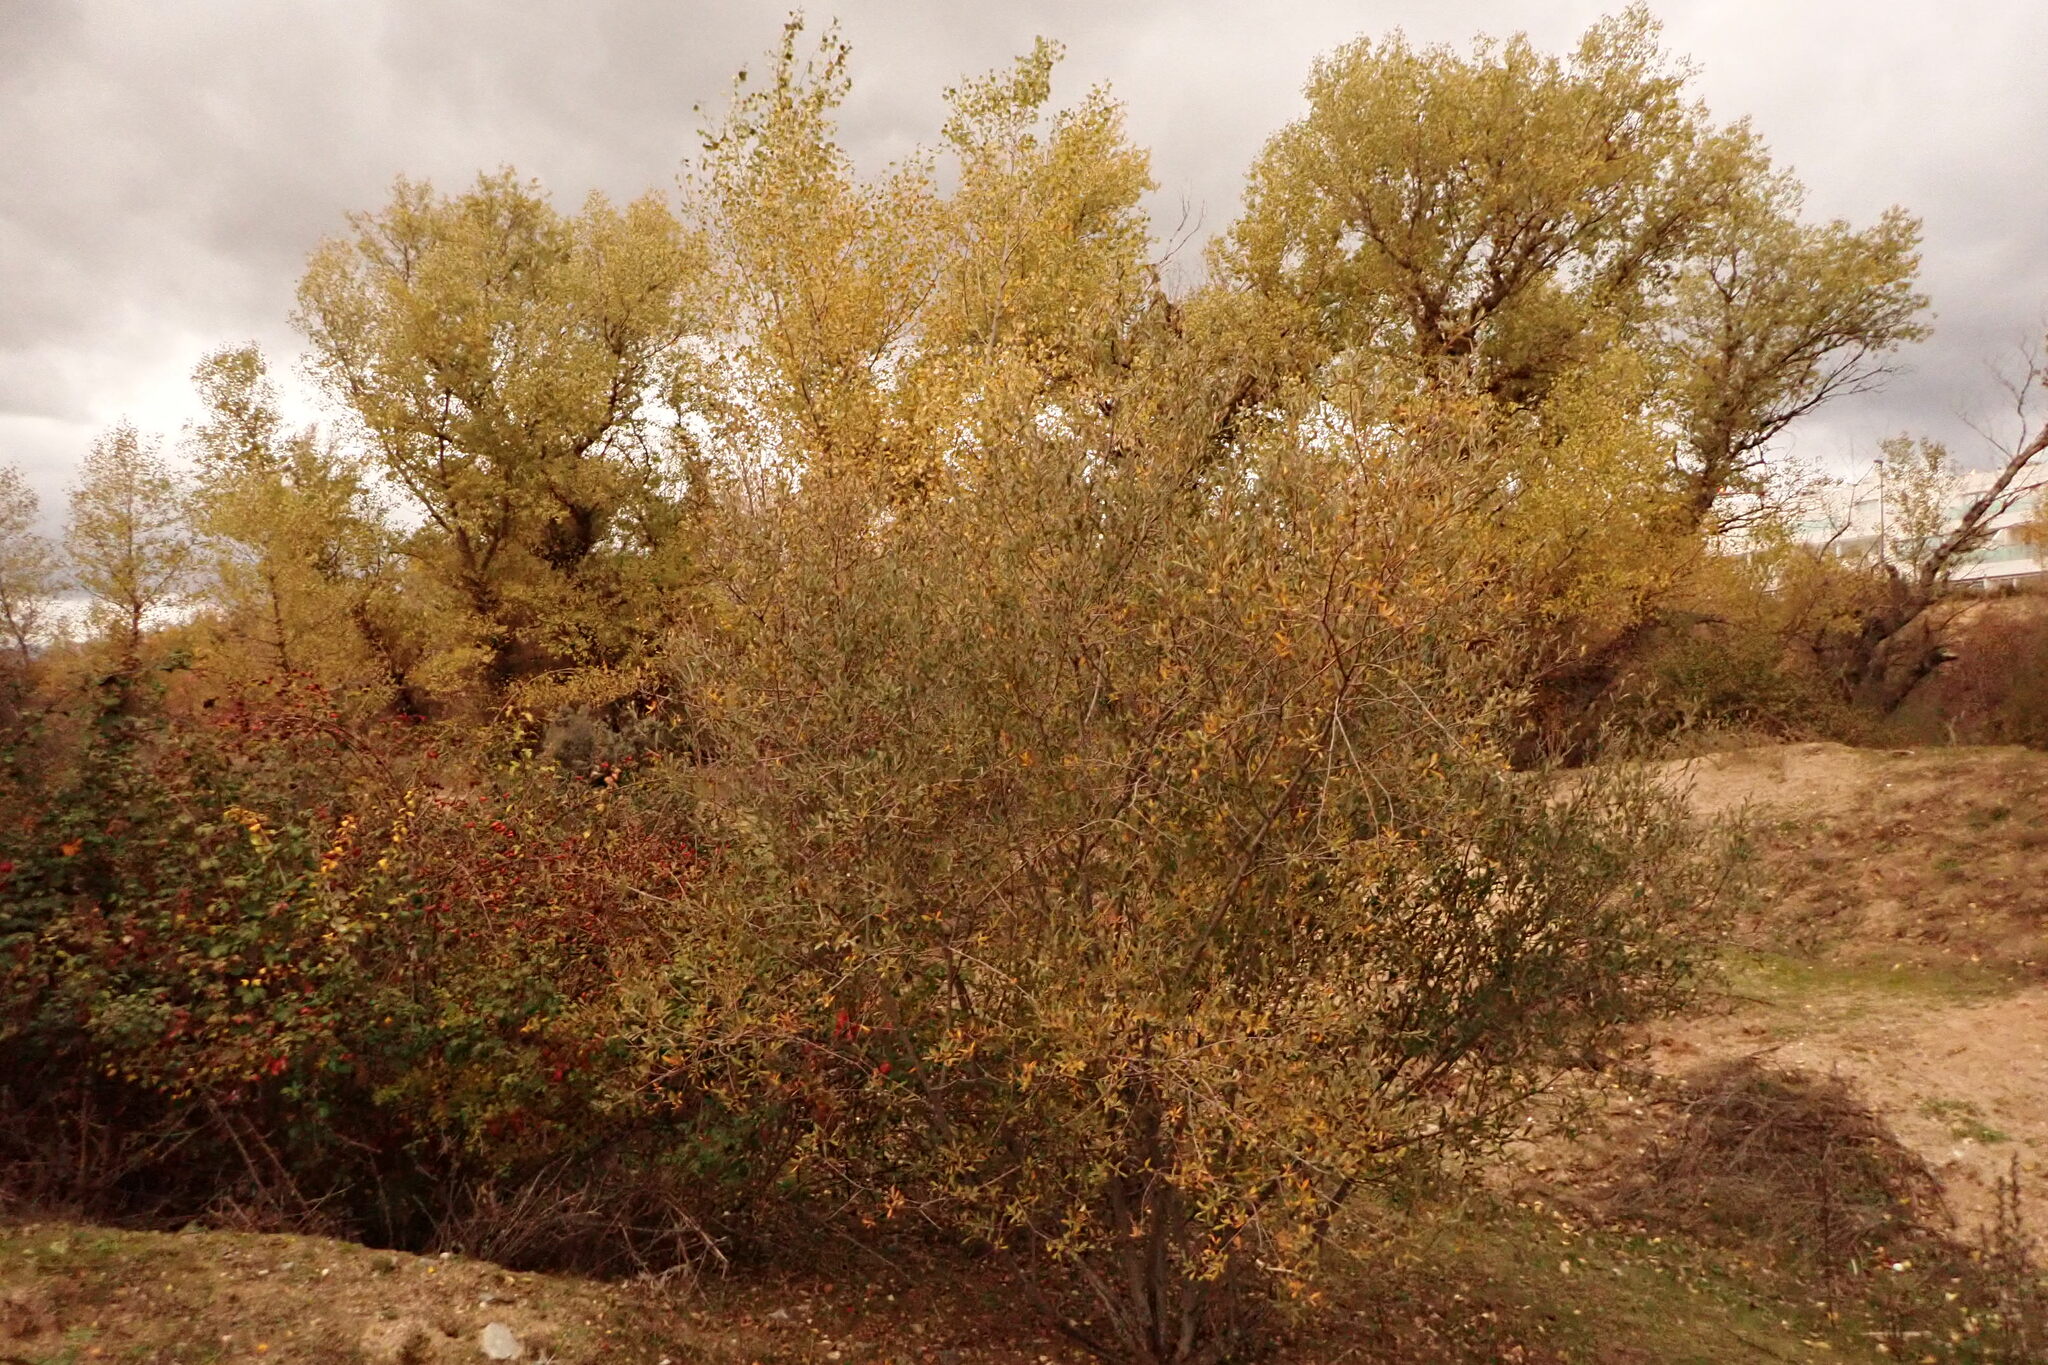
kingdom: Plantae
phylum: Tracheophyta
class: Magnoliopsida
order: Malpighiales
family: Salicaceae
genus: Salix
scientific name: Salix salviifolia
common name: Salvia-leaf willow
